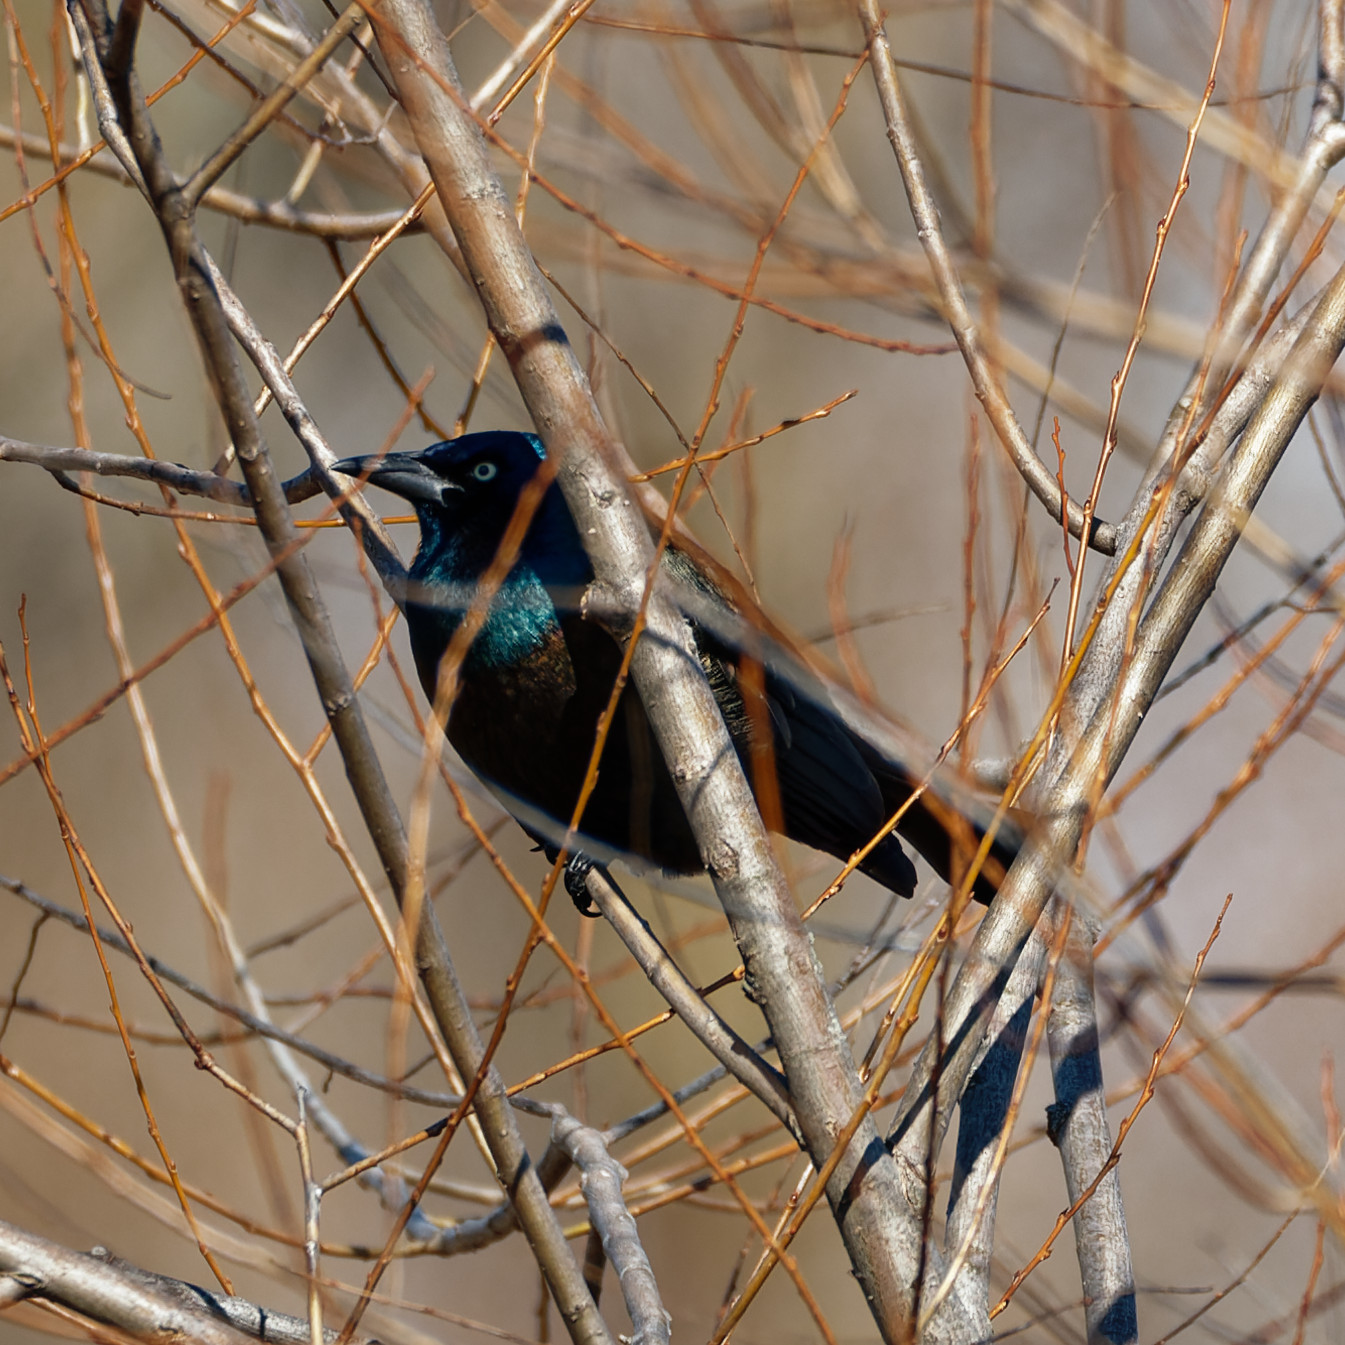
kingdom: Animalia
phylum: Chordata
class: Aves
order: Passeriformes
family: Icteridae
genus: Quiscalus
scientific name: Quiscalus quiscula
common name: Common grackle
